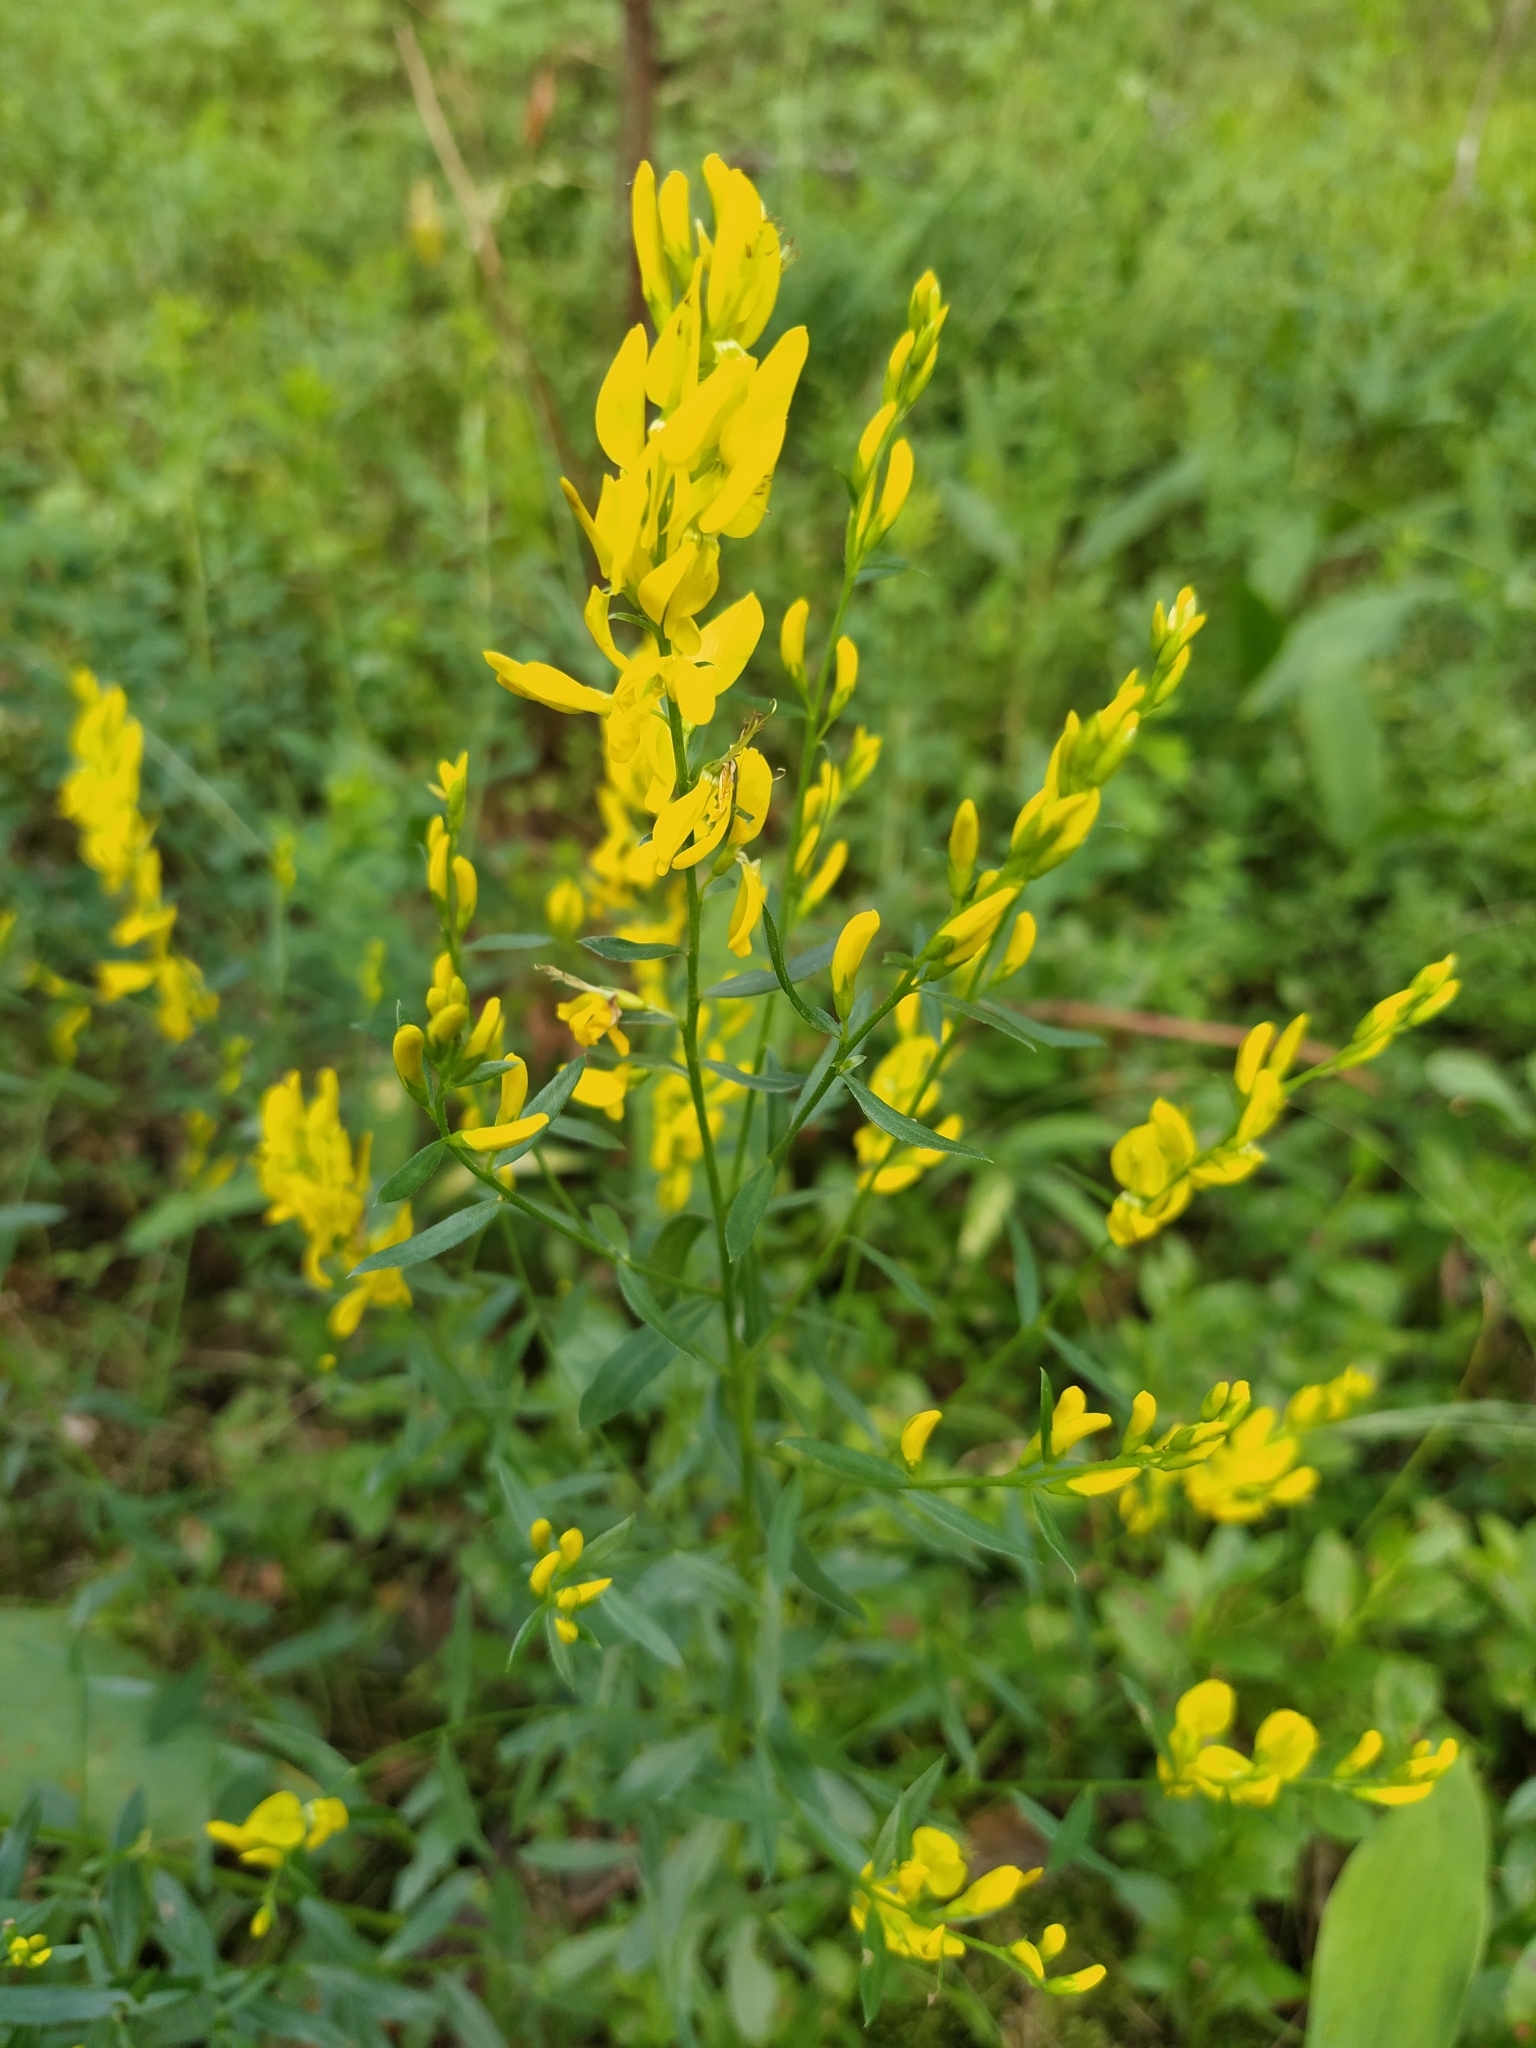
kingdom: Plantae
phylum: Tracheophyta
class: Magnoliopsida
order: Fabales
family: Fabaceae
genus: Genista
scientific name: Genista tinctoria
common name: Dyer's greenweed
